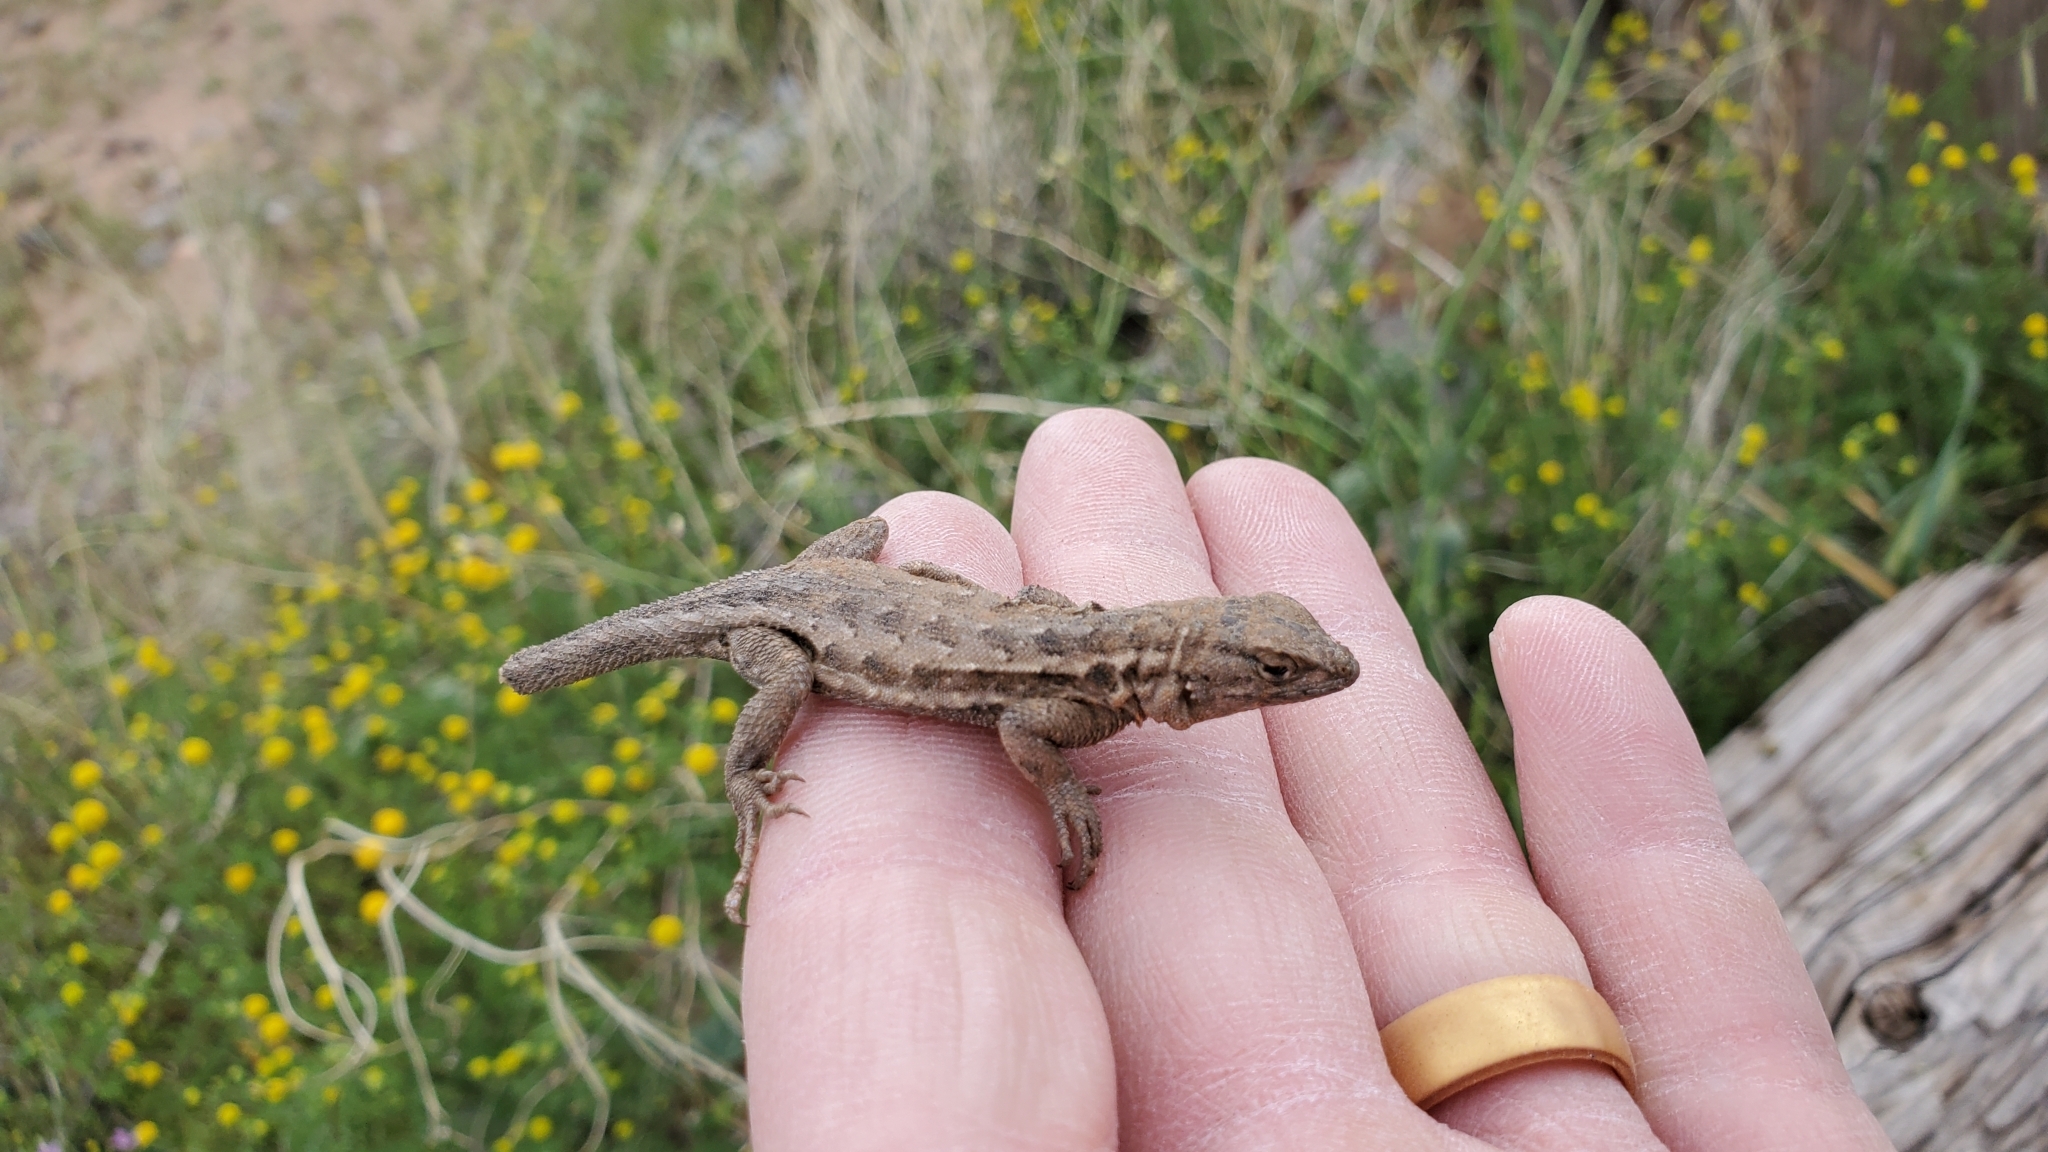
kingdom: Animalia
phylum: Chordata
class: Squamata
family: Phrynosomatidae
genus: Uta
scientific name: Uta stansburiana
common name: Side-blotched lizard
